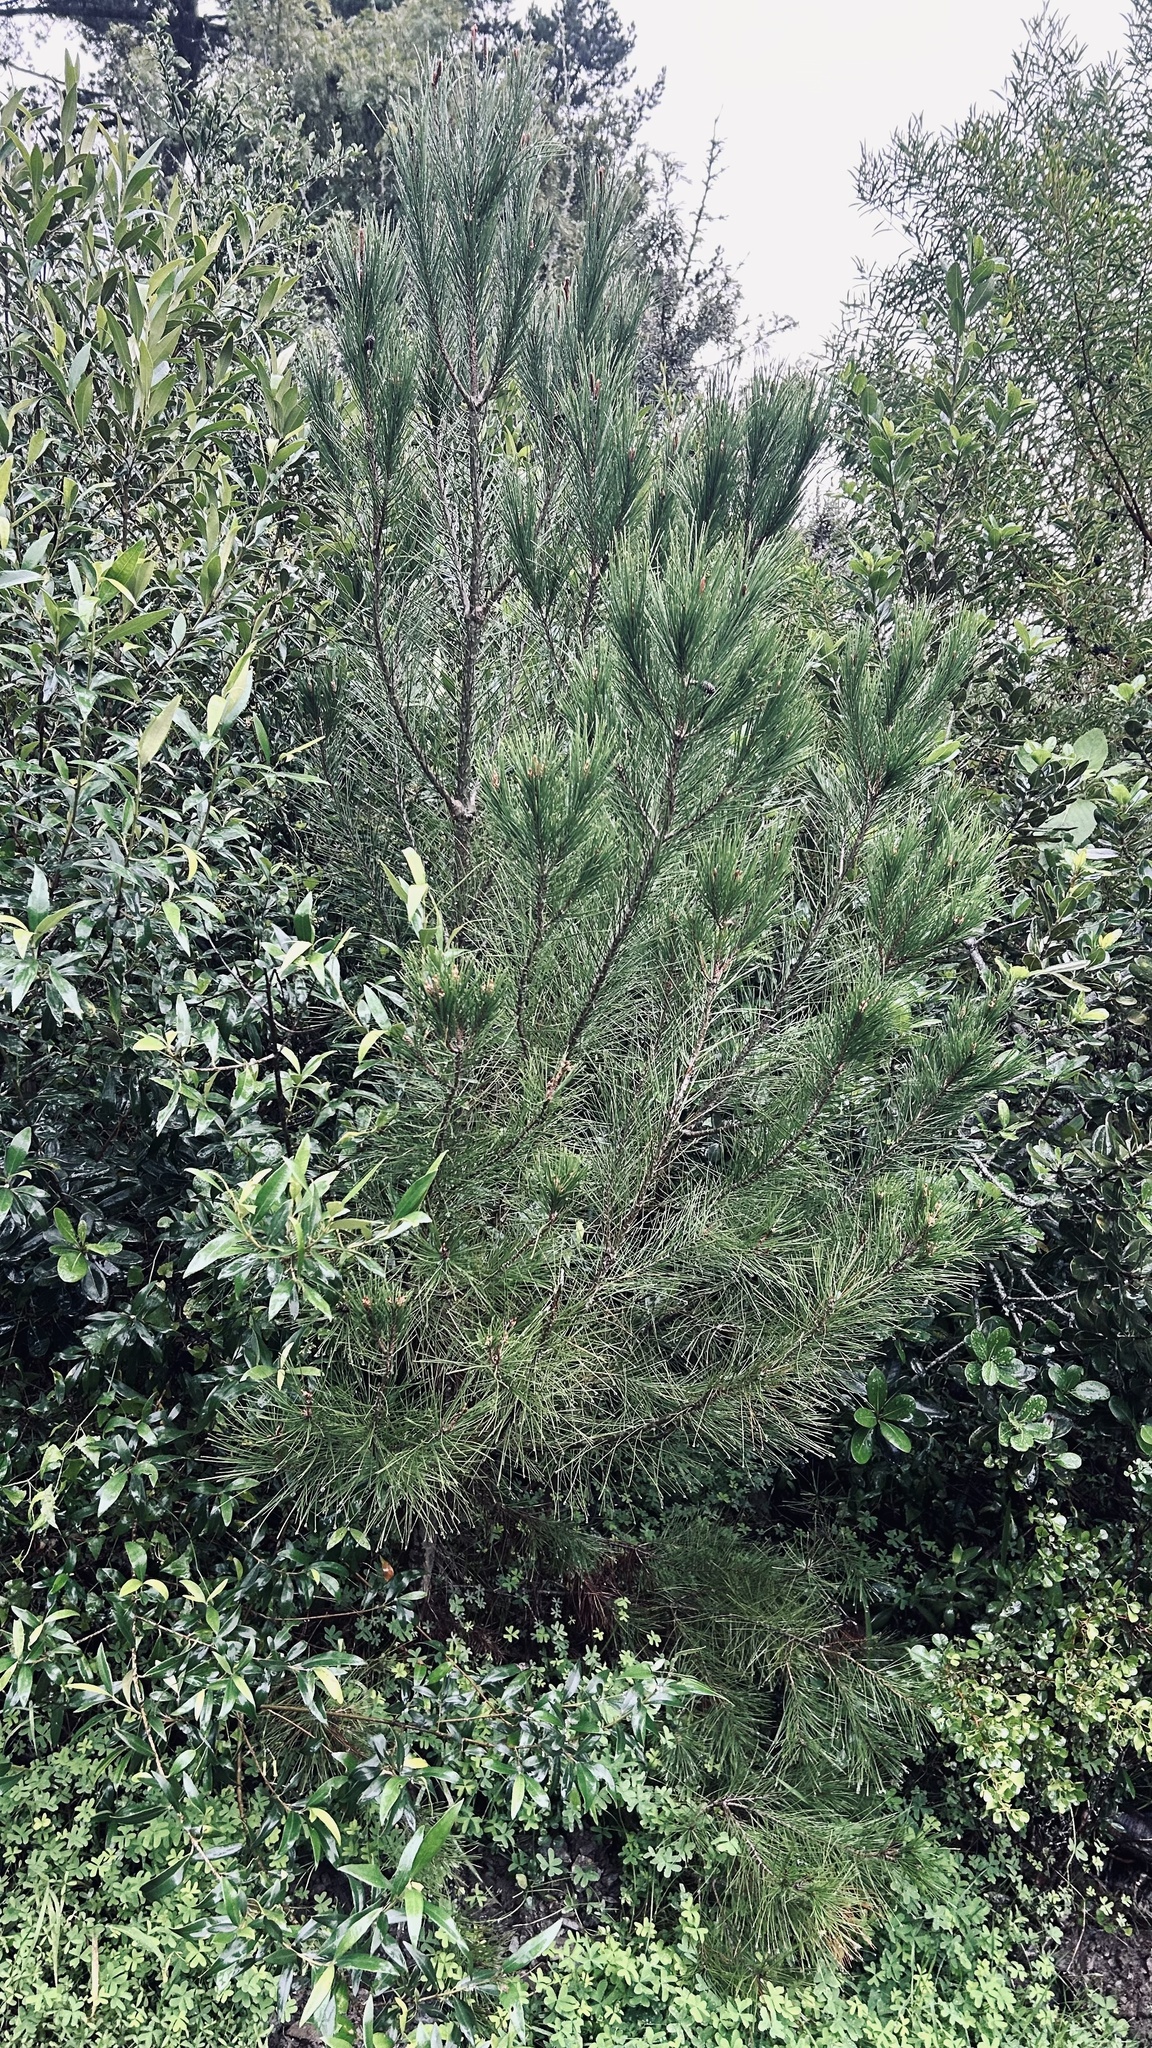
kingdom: Plantae
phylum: Tracheophyta
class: Pinopsida
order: Pinales
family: Pinaceae
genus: Pinus
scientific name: Pinus radiata
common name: Monterey pine
